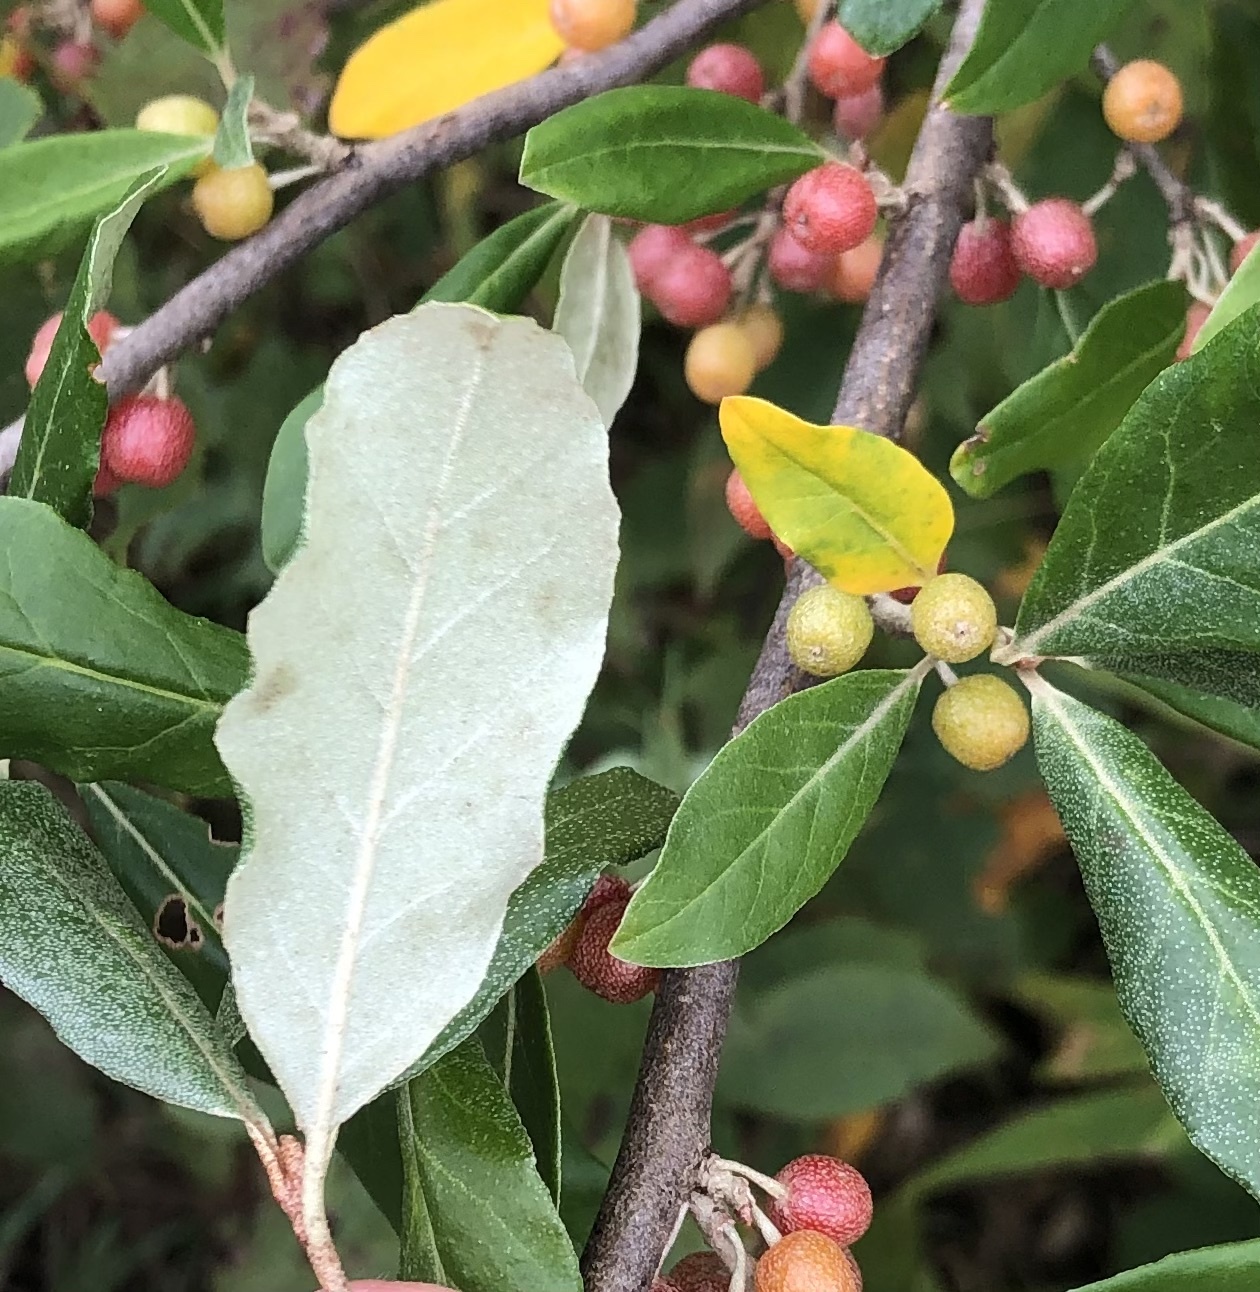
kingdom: Plantae
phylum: Tracheophyta
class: Magnoliopsida
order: Rosales
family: Elaeagnaceae
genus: Elaeagnus
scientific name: Elaeagnus umbellata
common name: Autumn olive
